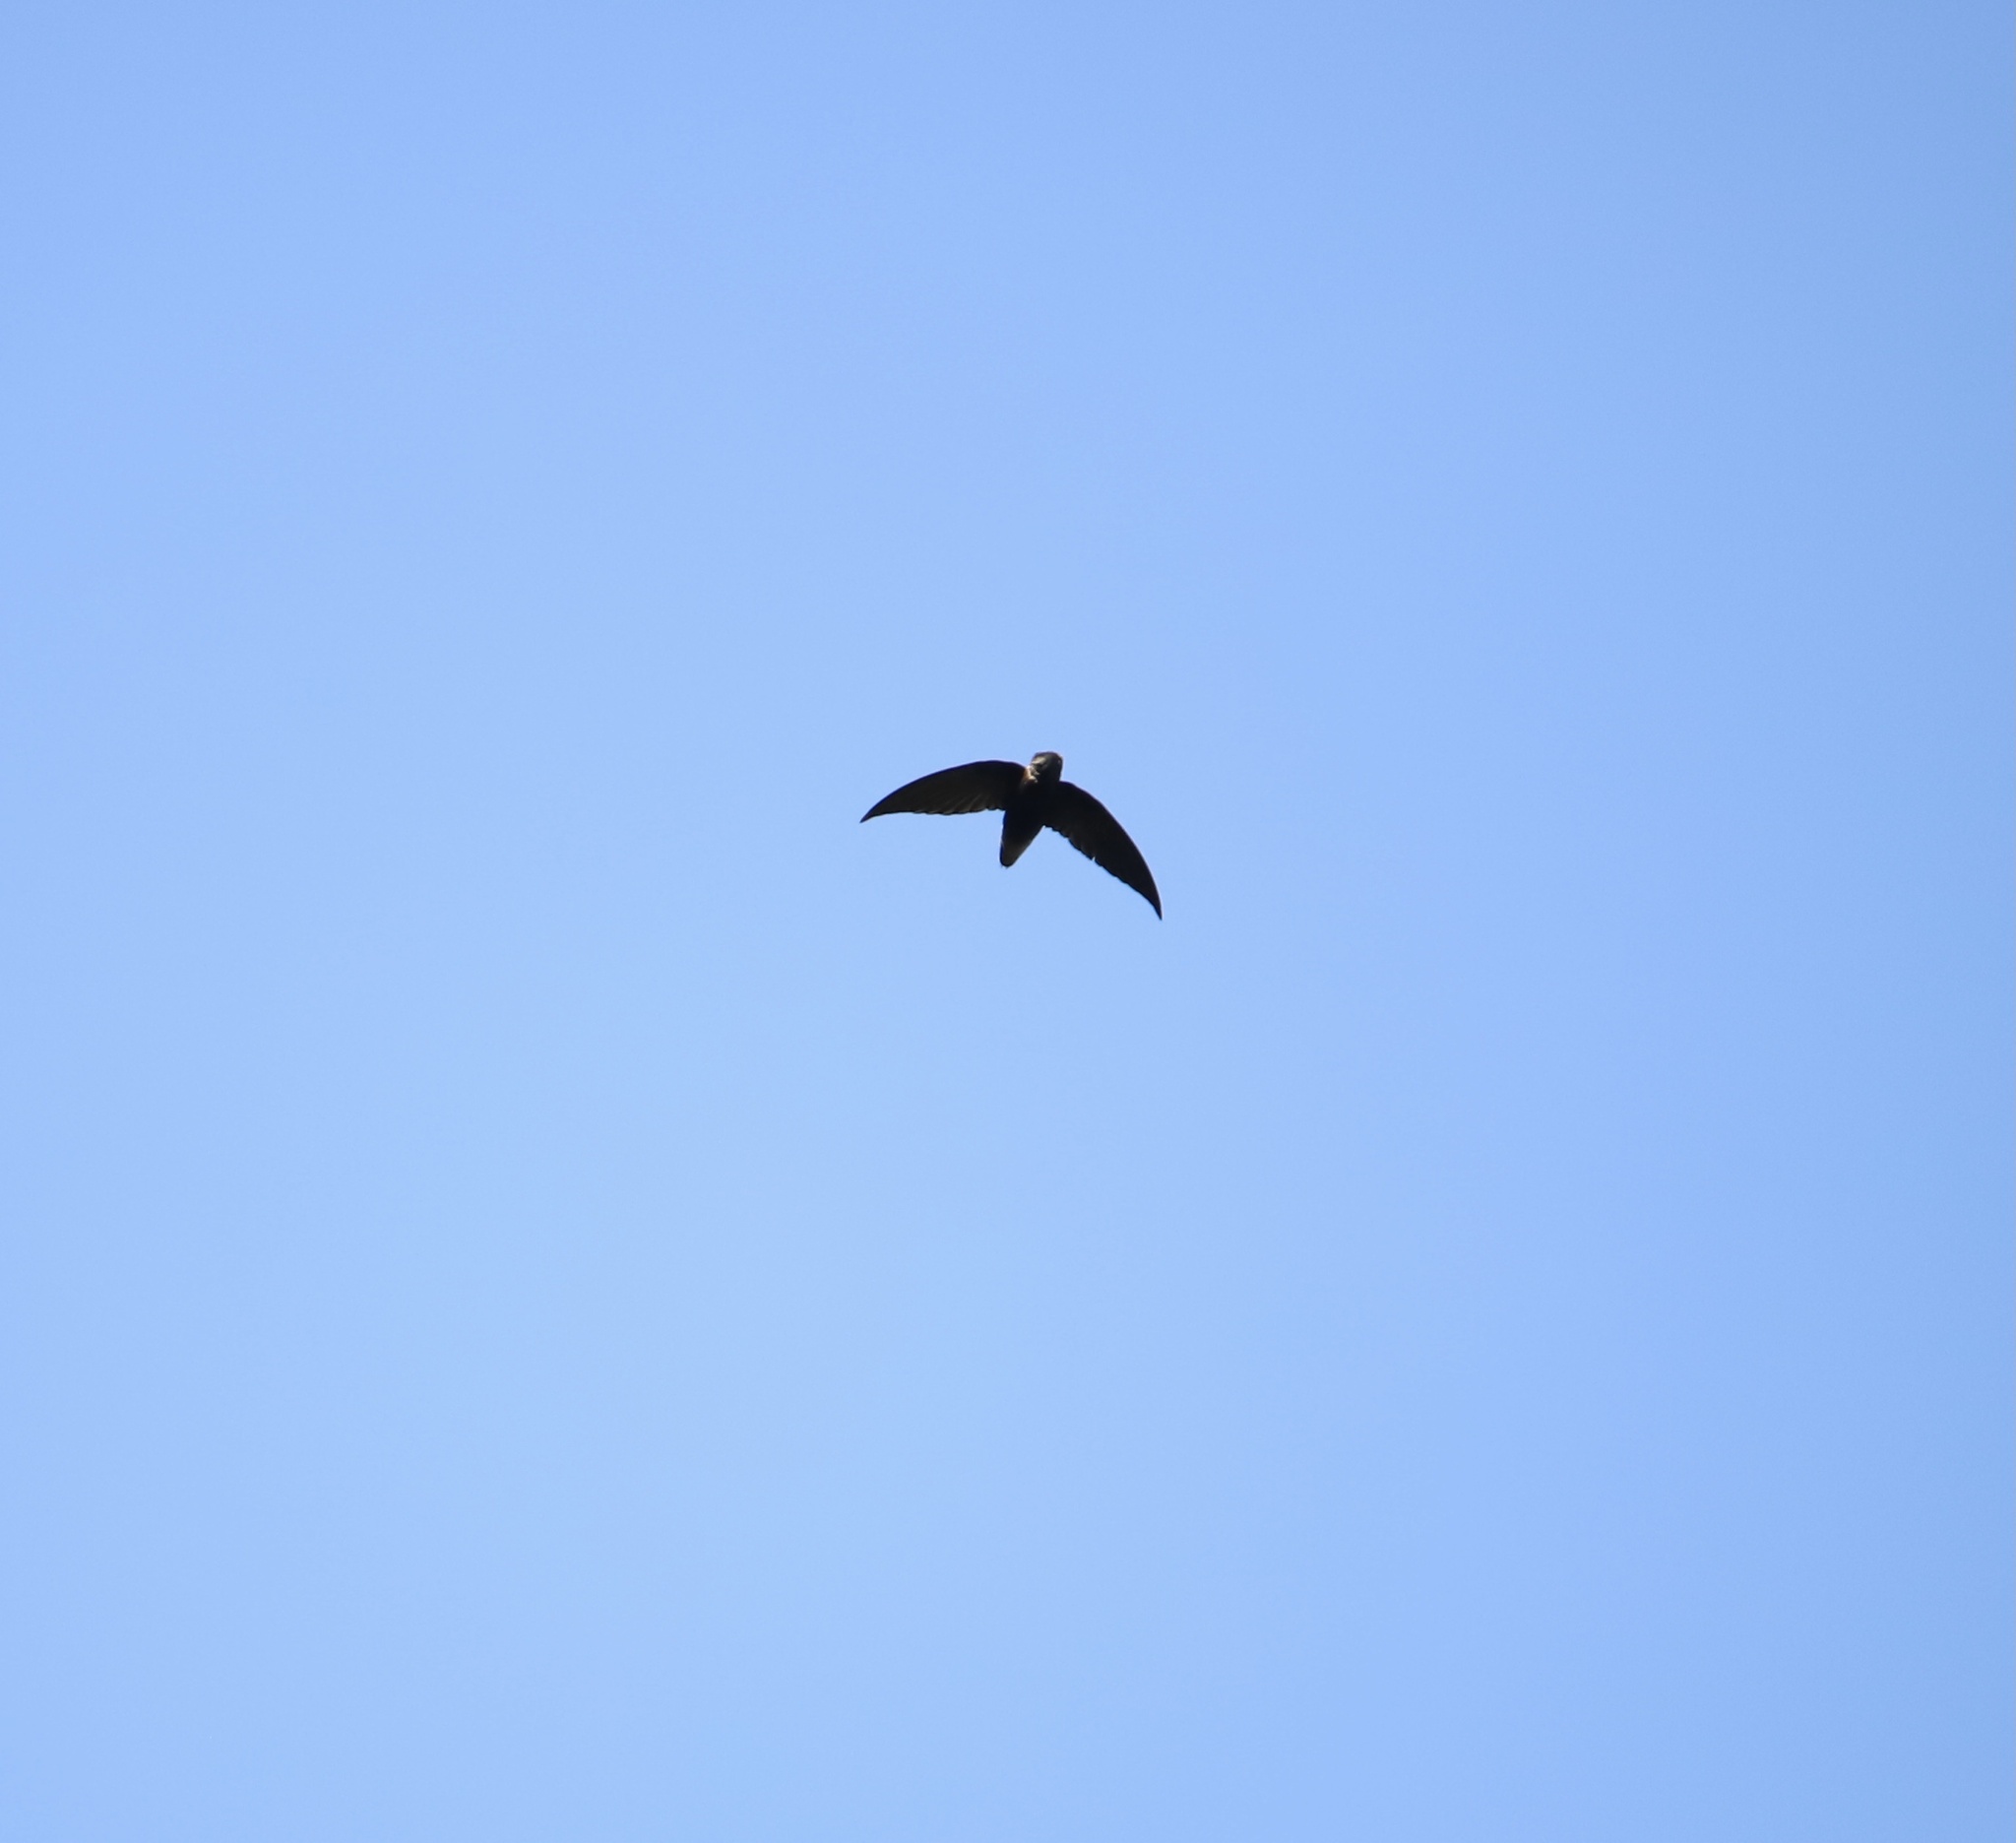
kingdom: Animalia
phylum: Chordata
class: Aves
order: Apodiformes
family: Apodidae
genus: Chaetura
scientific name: Chaetura brachyura
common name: Short-tailed swift
